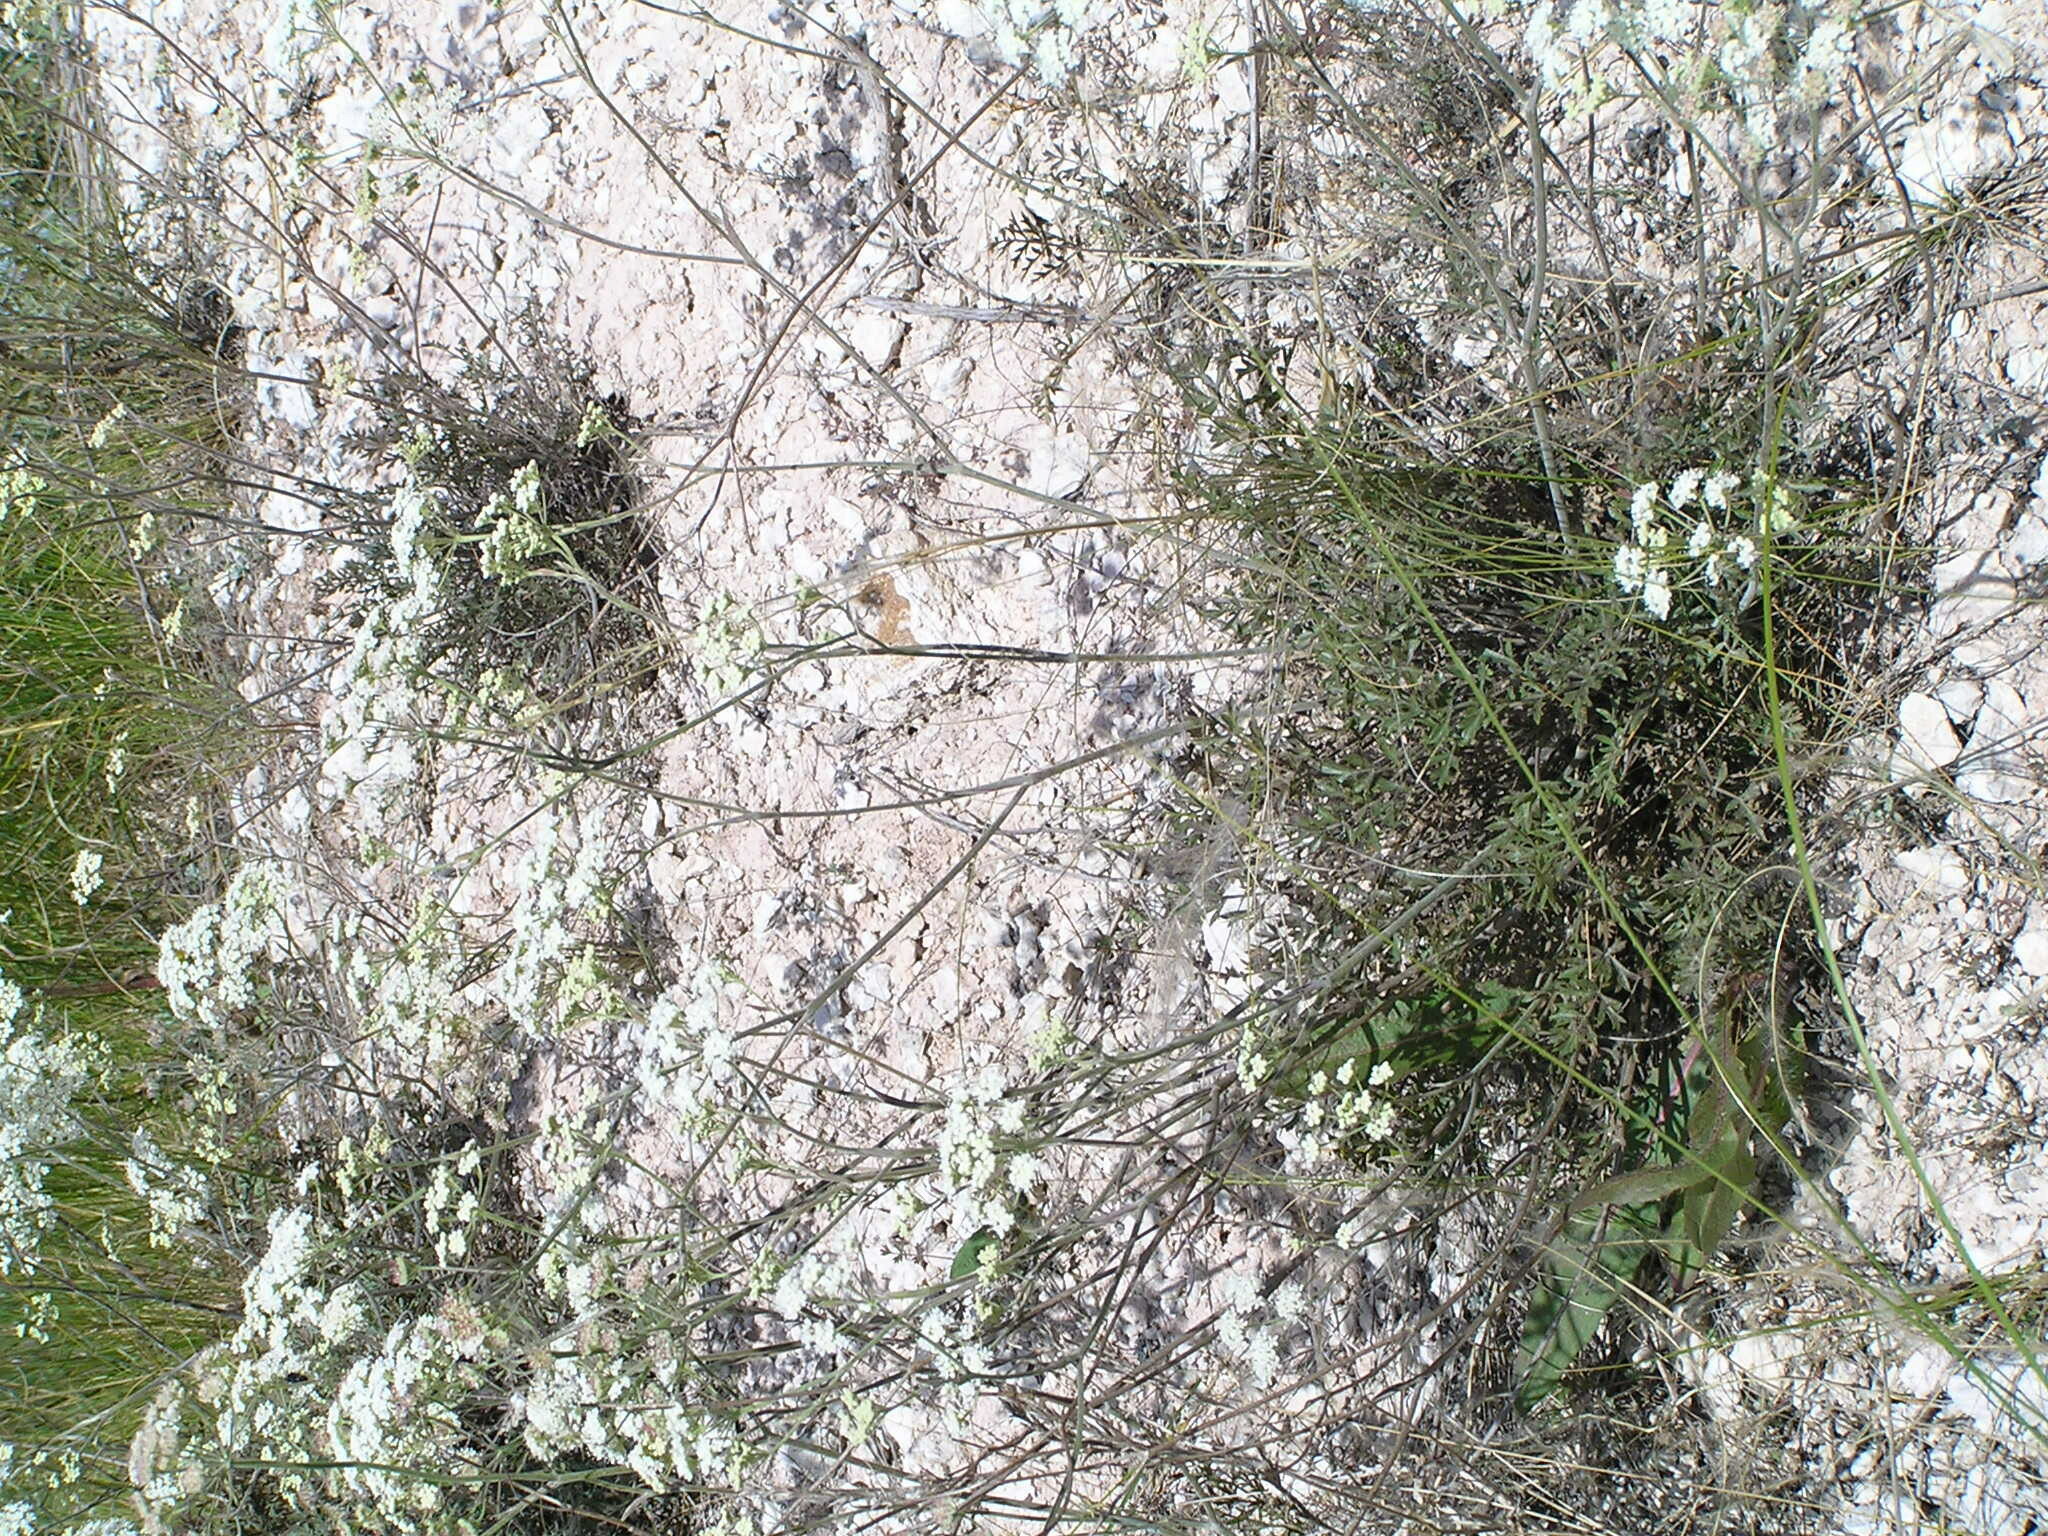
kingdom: Plantae
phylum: Tracheophyta
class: Magnoliopsida
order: Apiales
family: Apiaceae
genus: Pimpinella
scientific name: Pimpinella tragium
